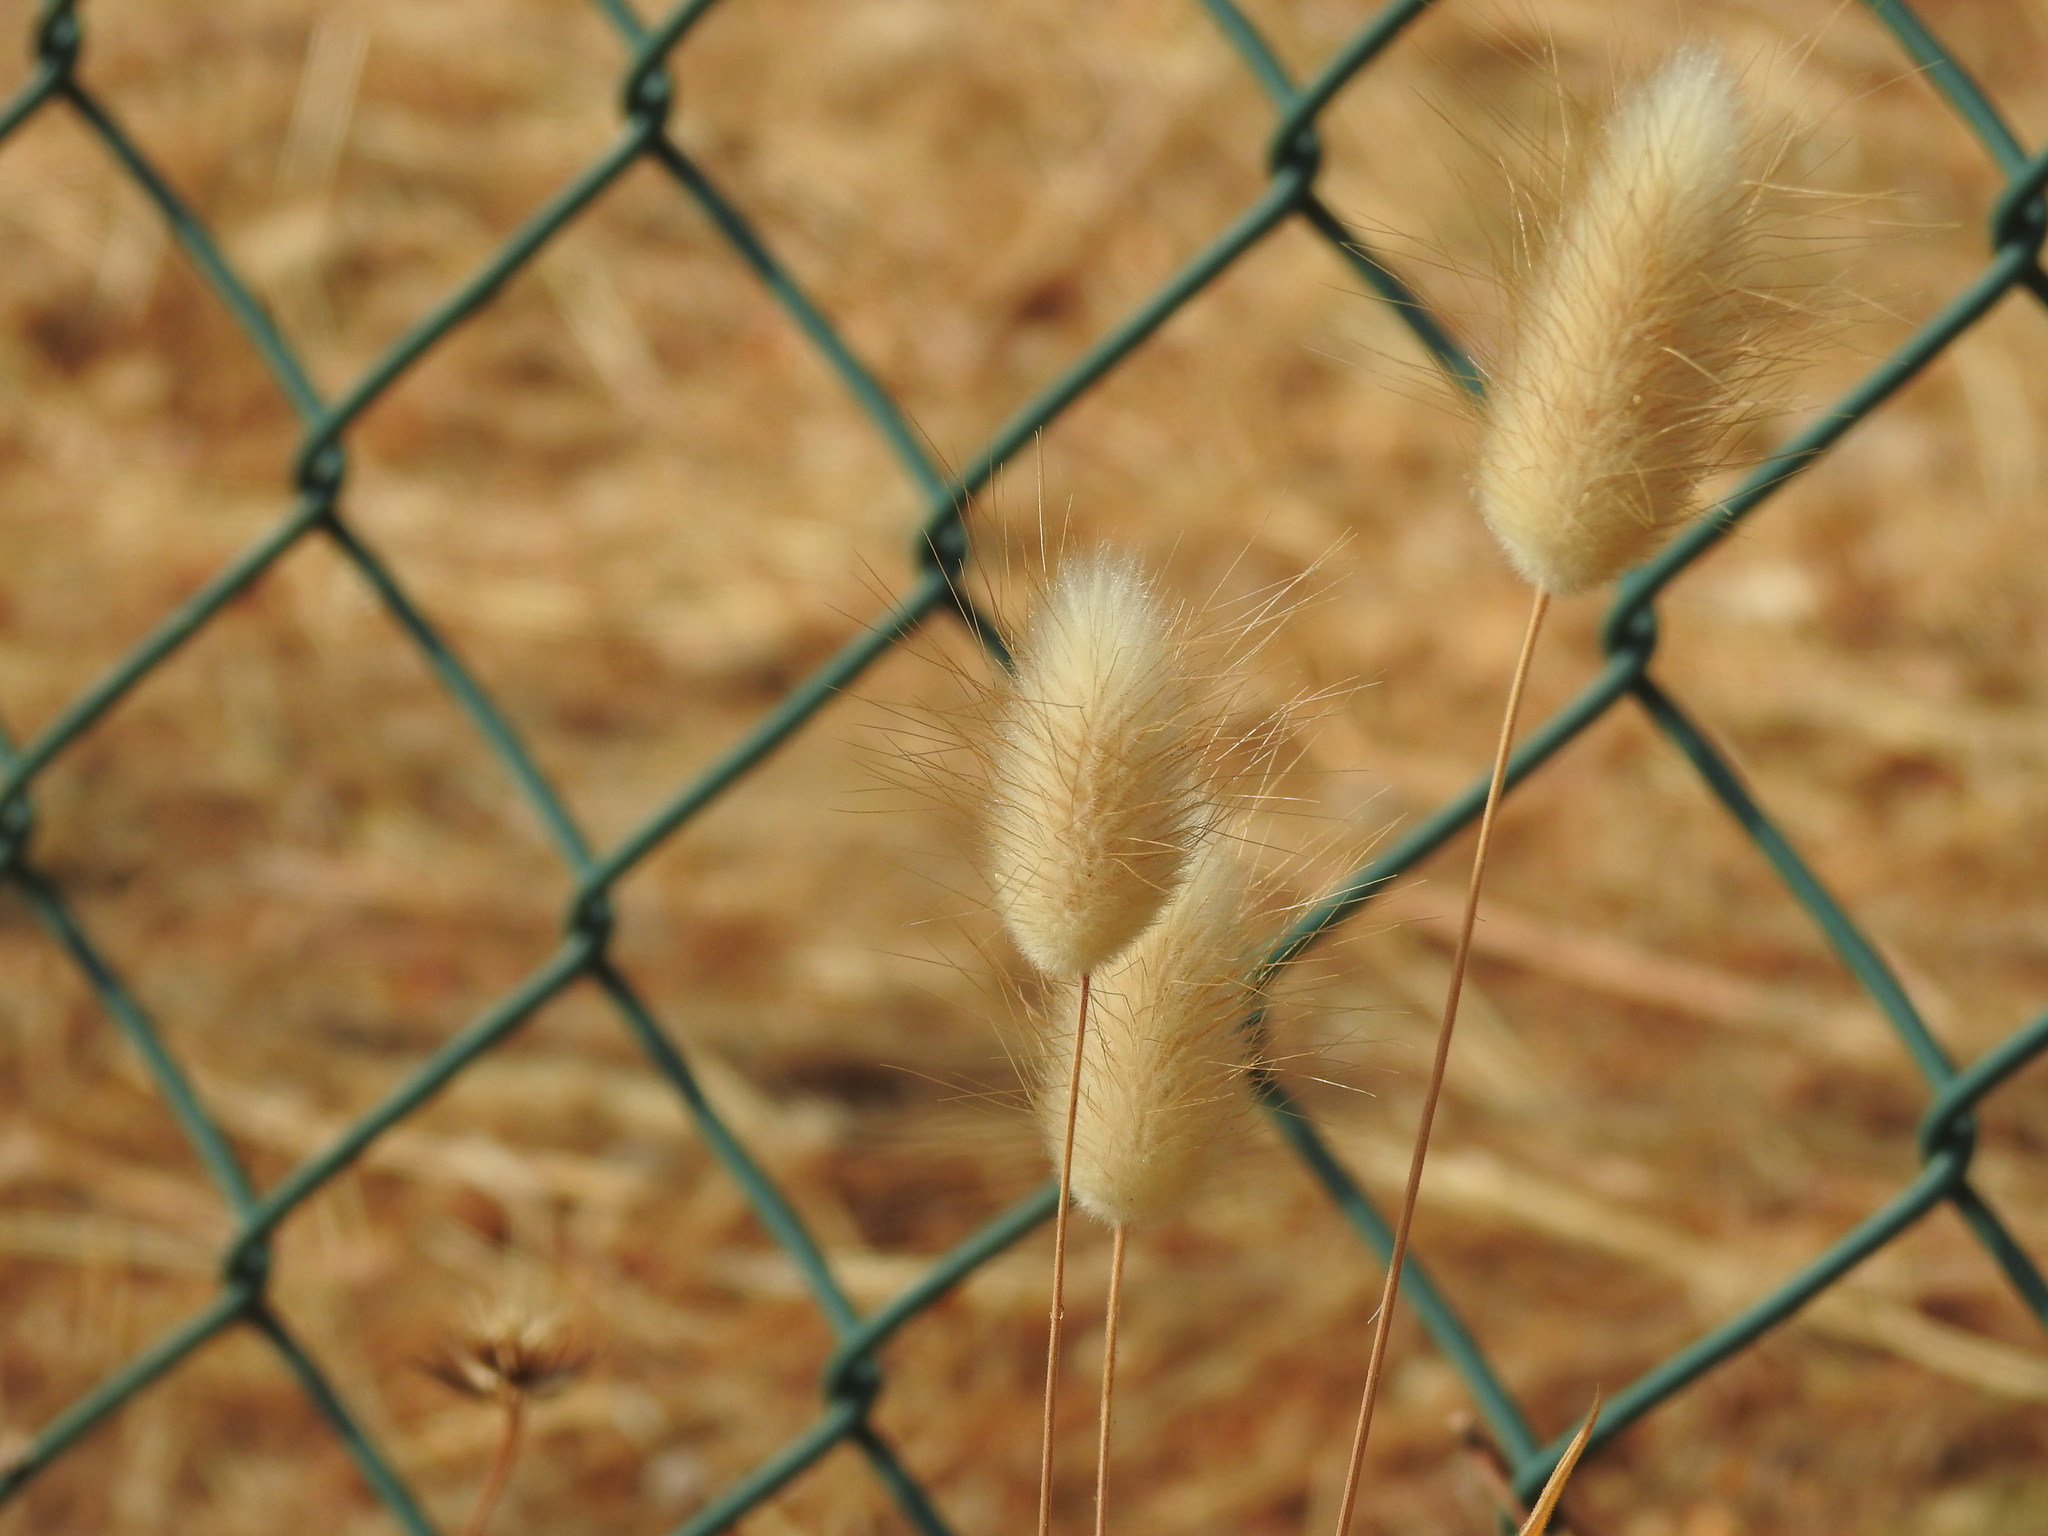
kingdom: Plantae
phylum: Tracheophyta
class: Liliopsida
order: Poales
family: Poaceae
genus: Lagurus
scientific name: Lagurus ovatus
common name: Hare's-tail
